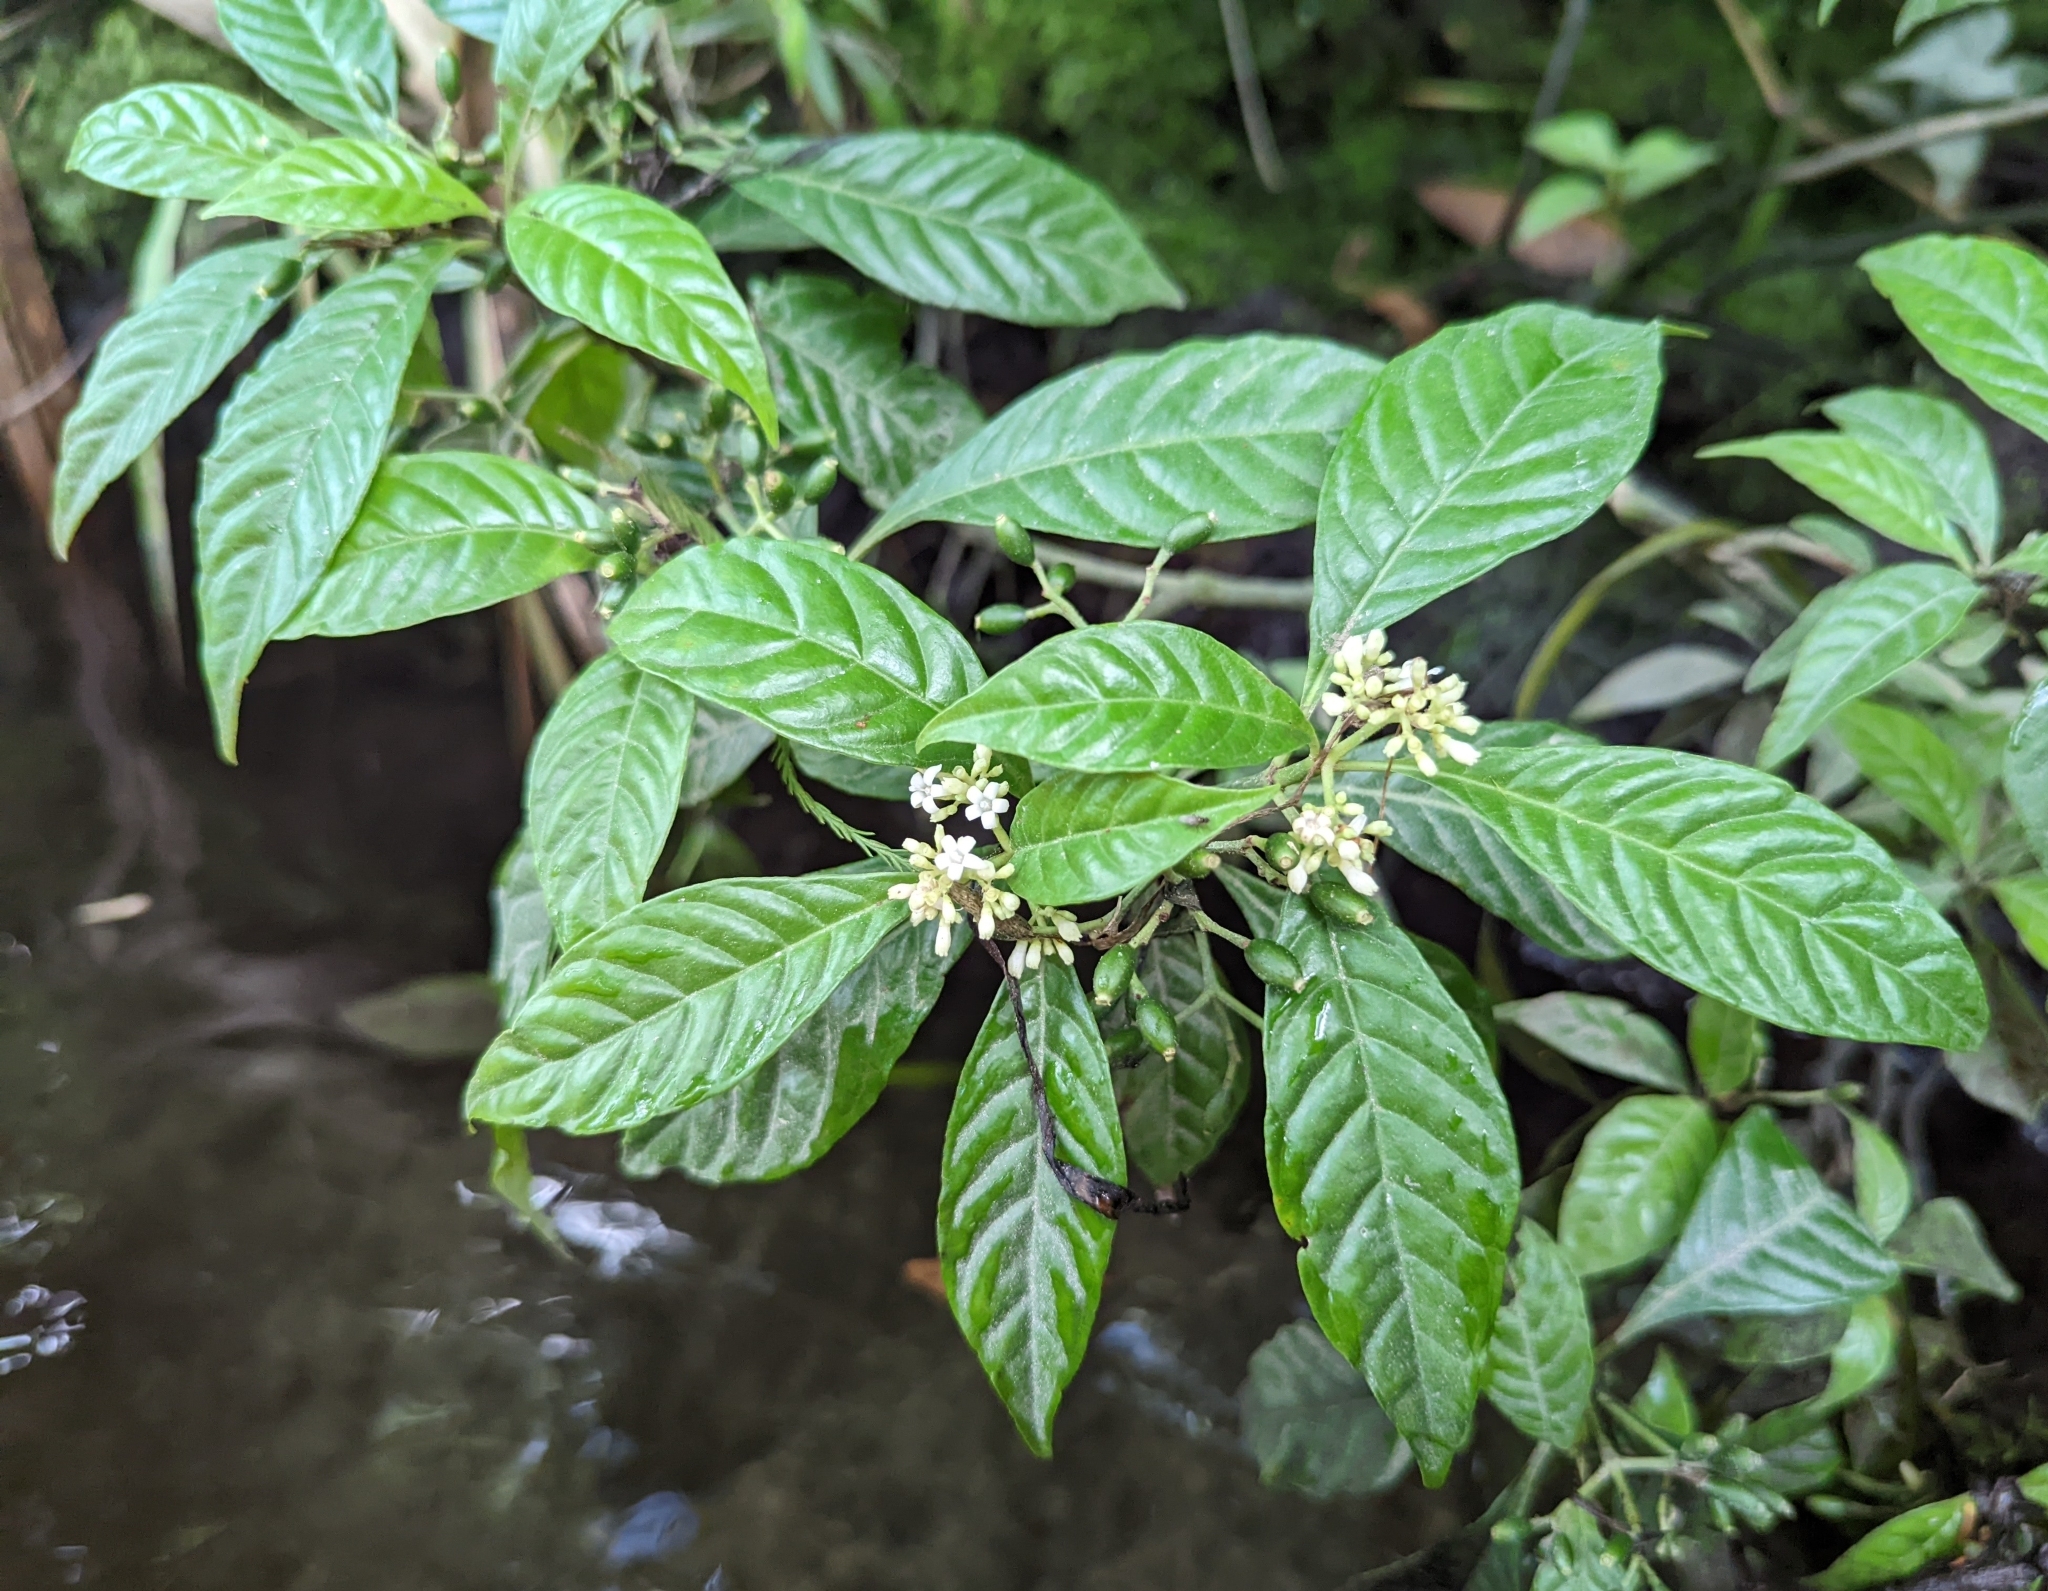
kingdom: Plantae
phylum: Tracheophyta
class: Magnoliopsida
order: Gentianales
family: Rubiaceae
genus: Psychotria
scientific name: Psychotria nervosa
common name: Bastard cankerberry
